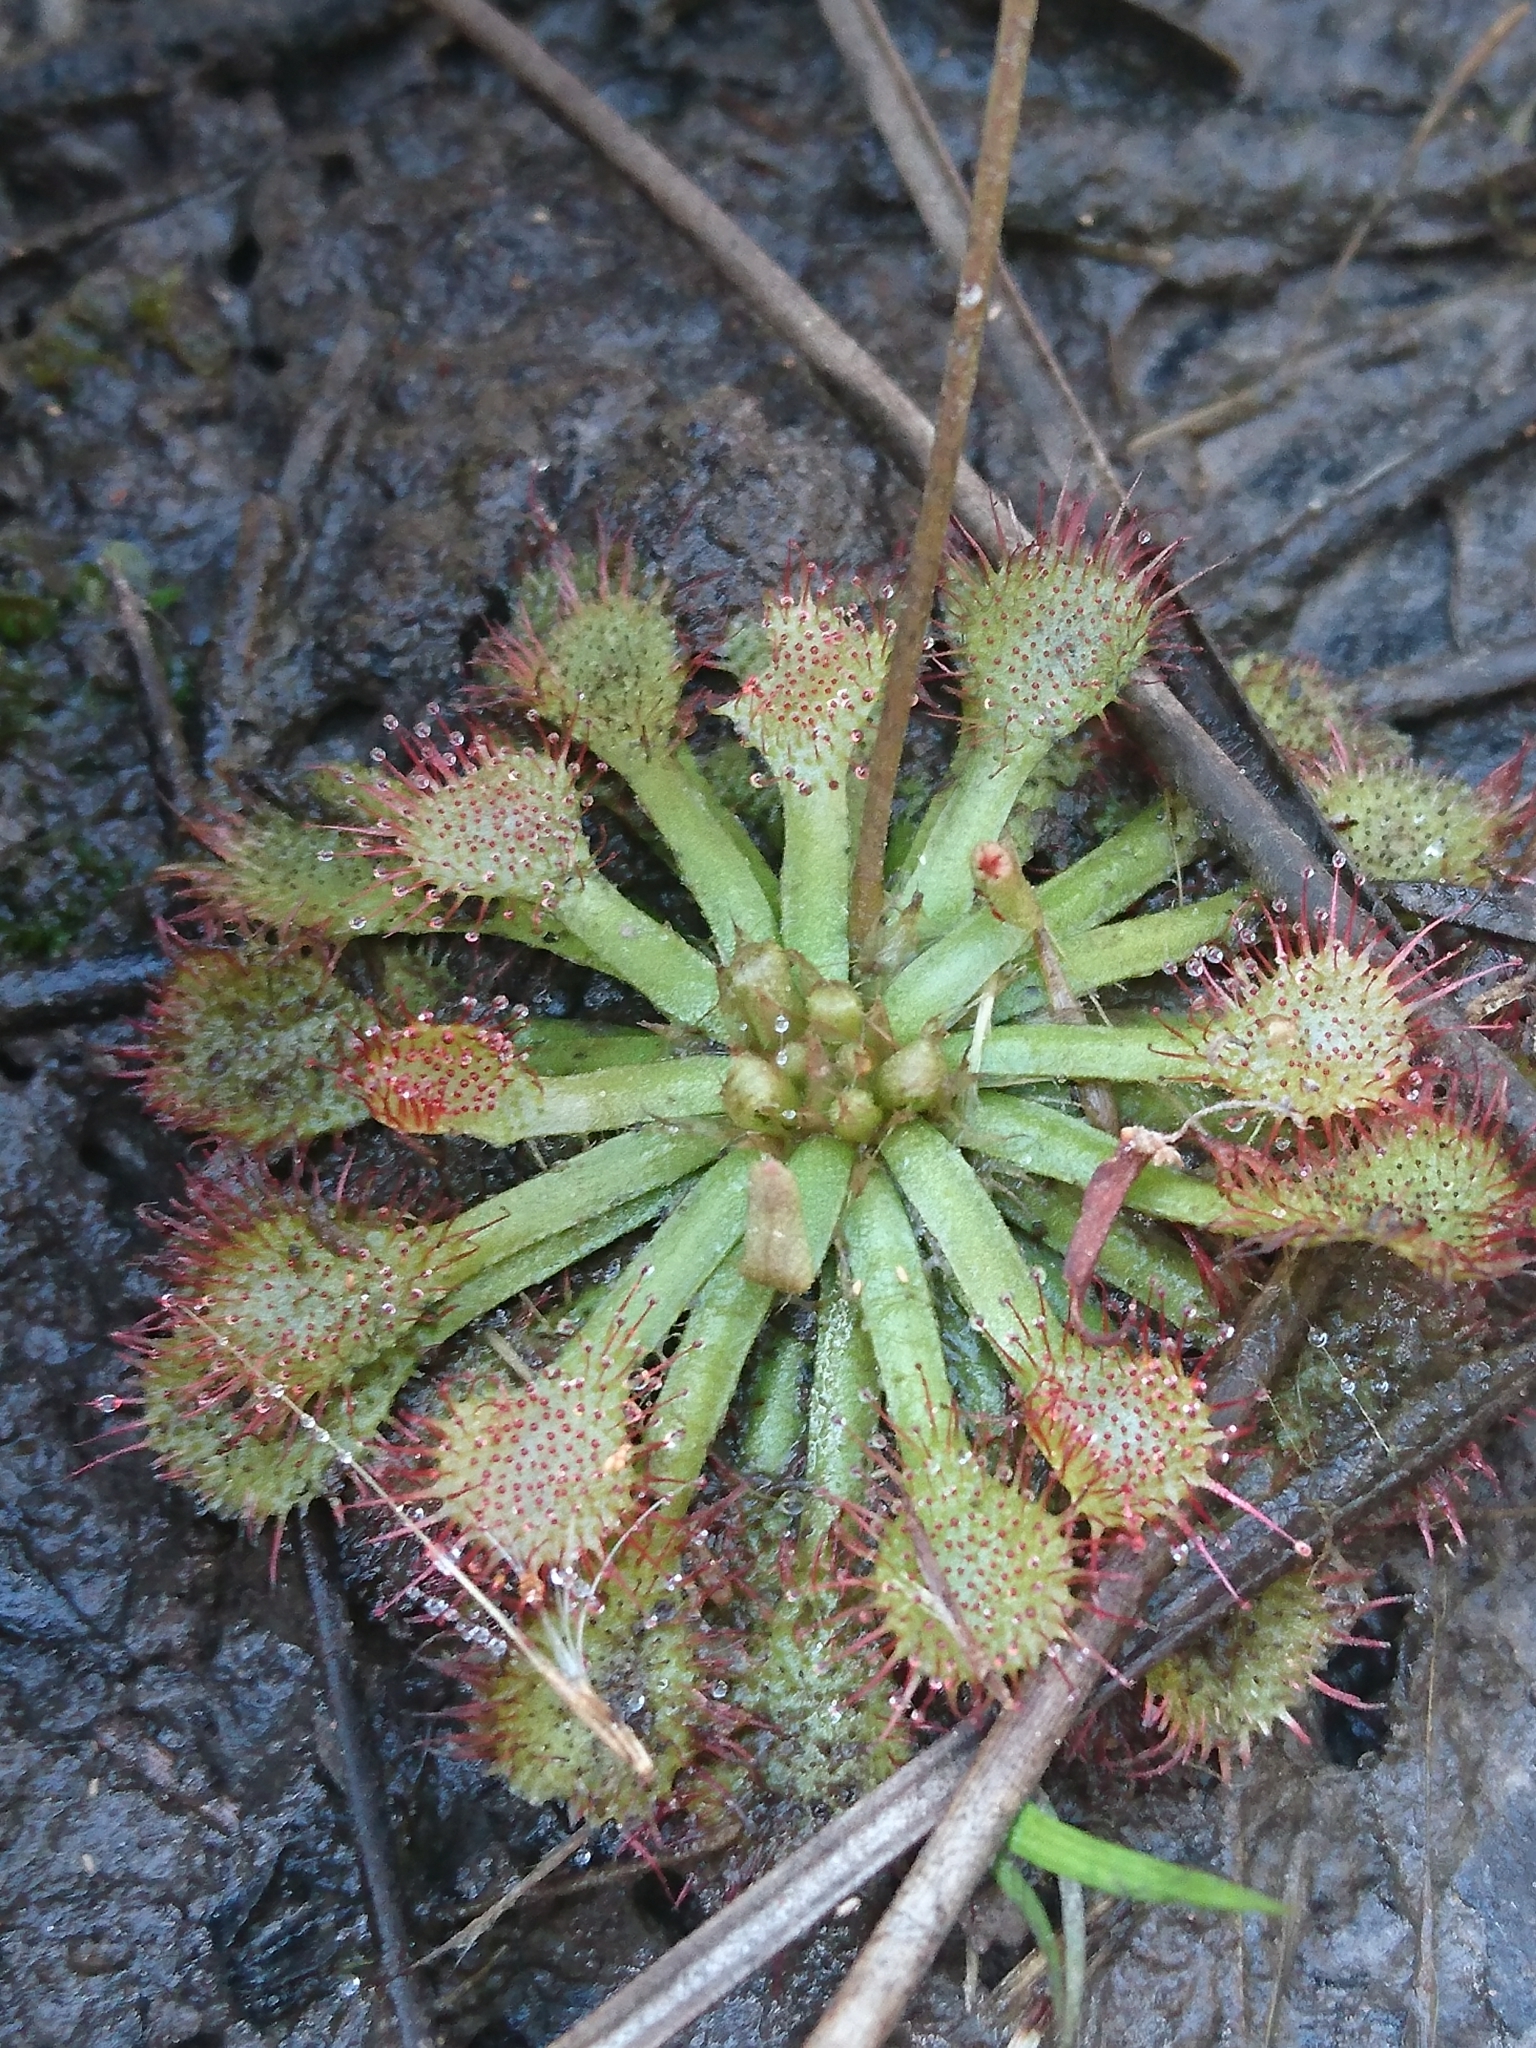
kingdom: Plantae
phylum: Tracheophyta
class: Magnoliopsida
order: Caryophyllales
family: Droseraceae
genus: Drosera
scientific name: Drosera capillaris
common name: Pink sundew
